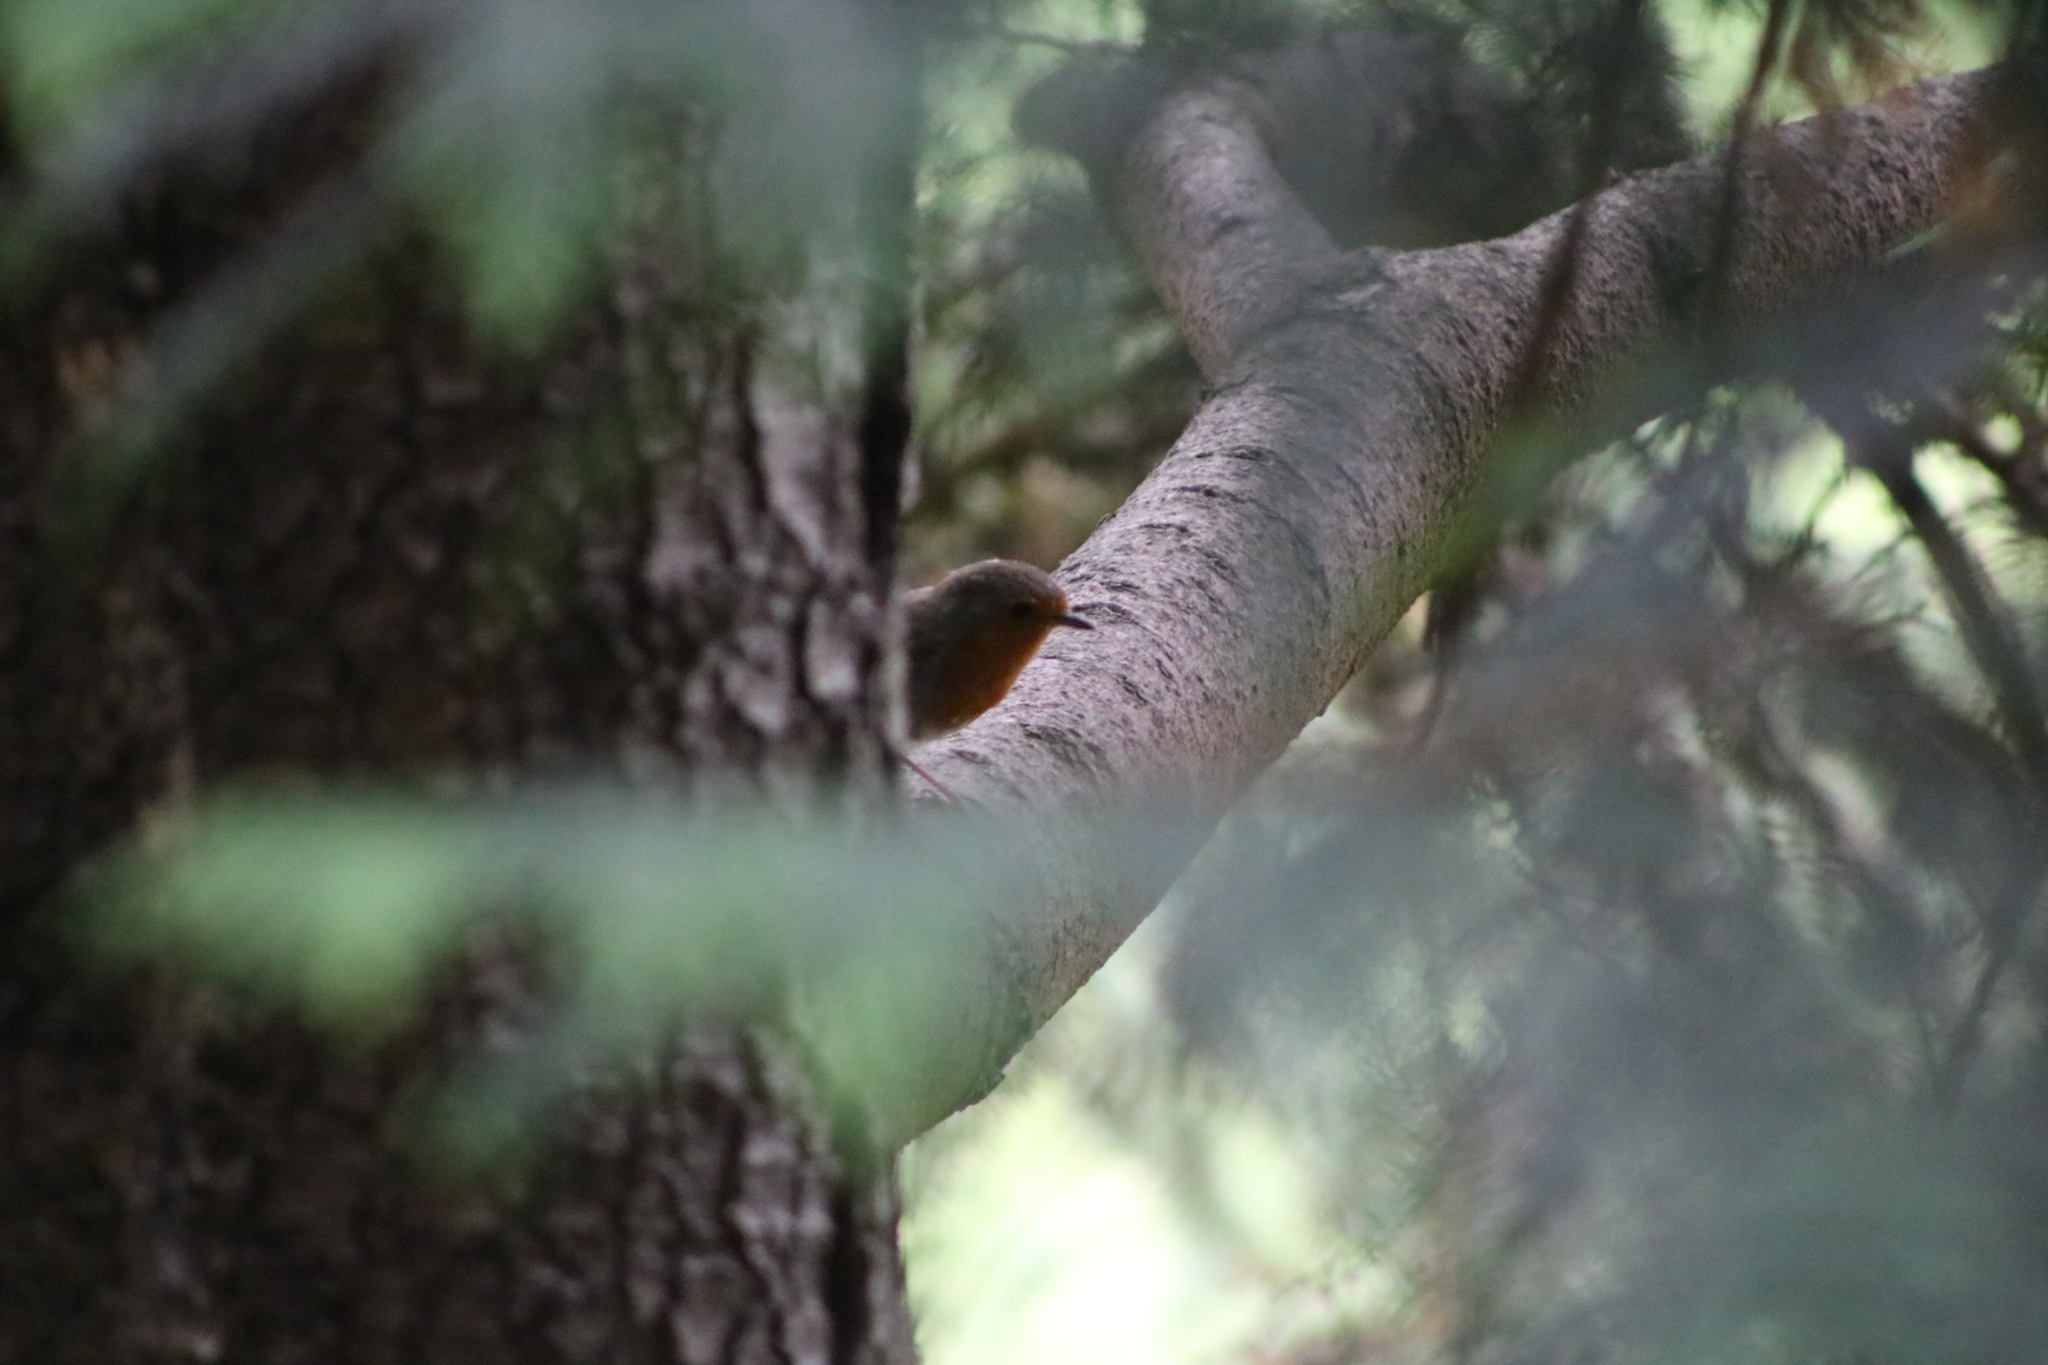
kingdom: Animalia
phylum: Chordata
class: Aves
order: Passeriformes
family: Muscicapidae
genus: Erithacus
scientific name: Erithacus rubecula
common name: European robin
